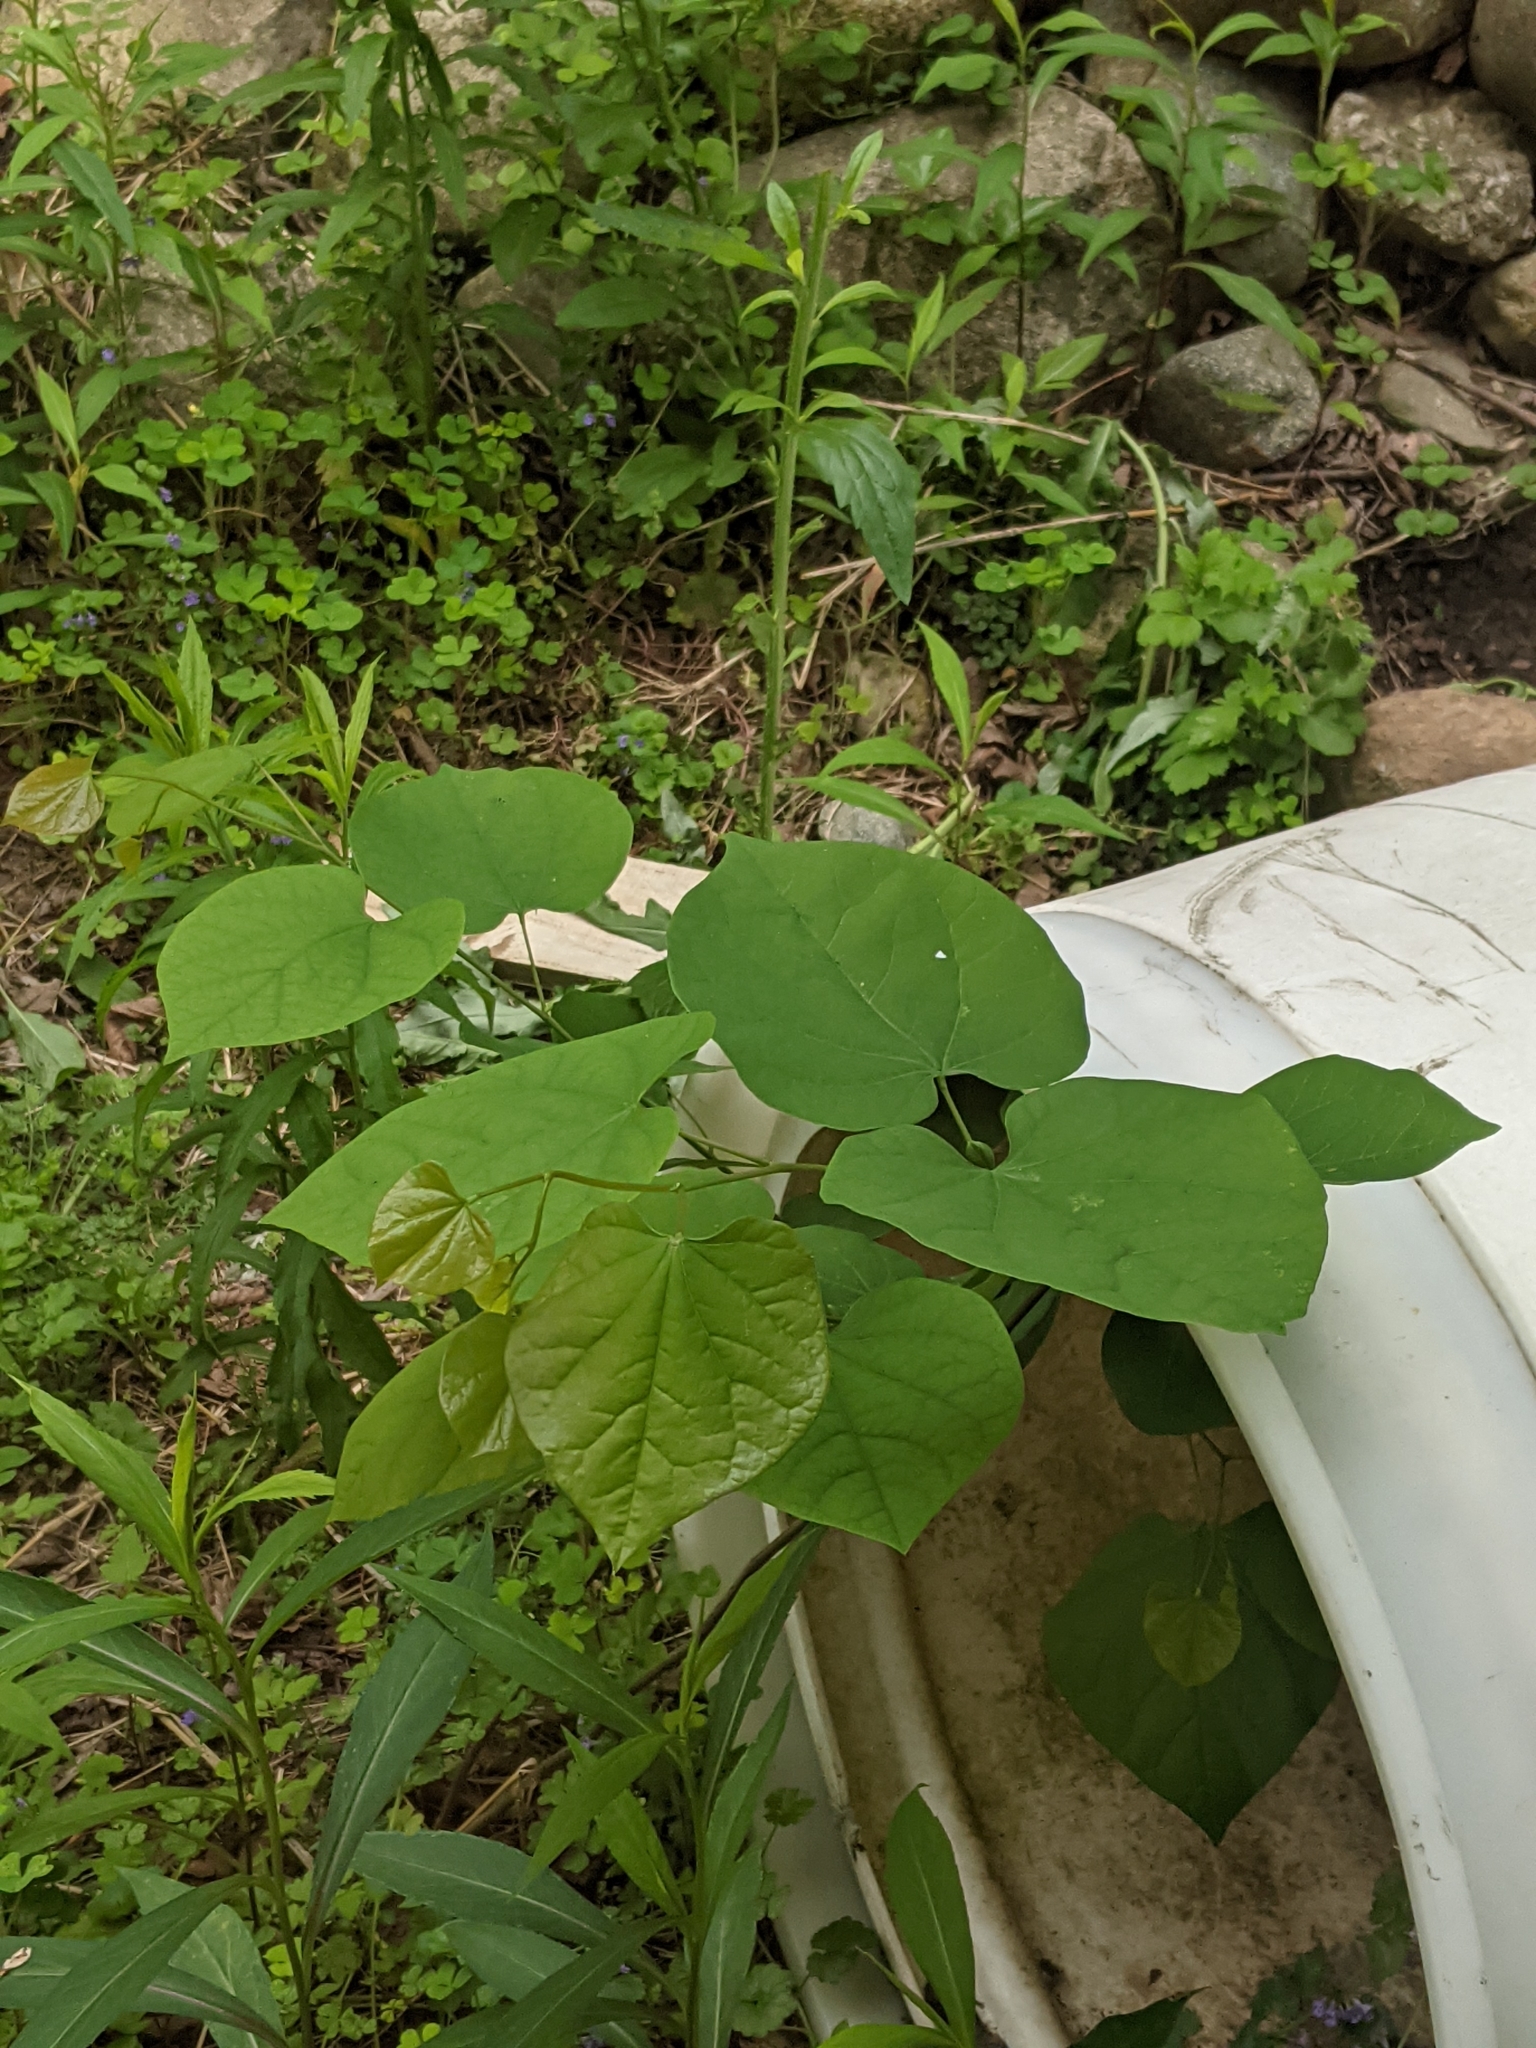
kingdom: Plantae
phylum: Tracheophyta
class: Magnoliopsida
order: Fabales
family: Fabaceae
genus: Cercis
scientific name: Cercis canadensis
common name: Eastern redbud
